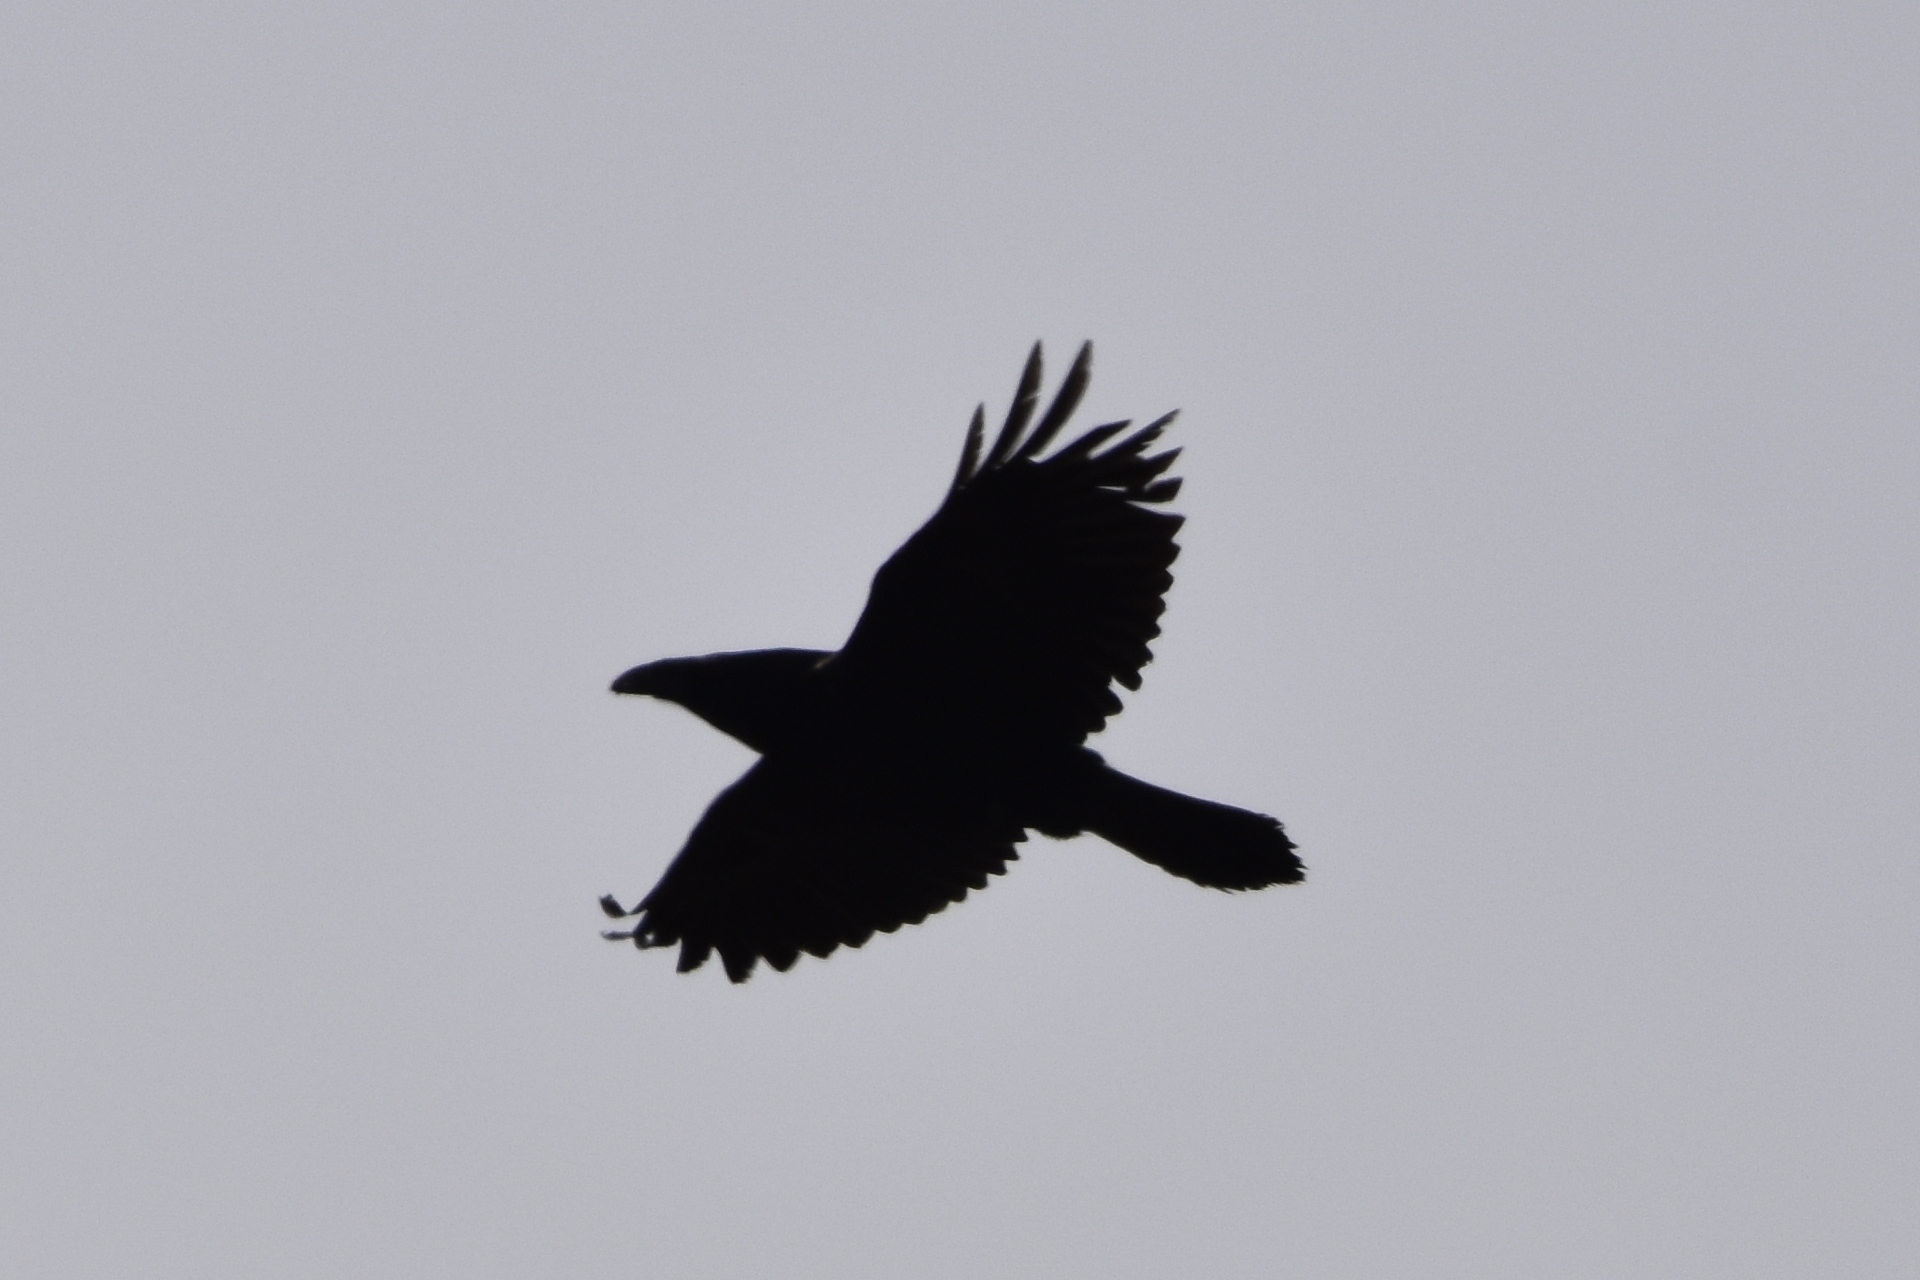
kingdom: Animalia
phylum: Chordata
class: Aves
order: Passeriformes
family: Corvidae
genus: Corvus
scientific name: Corvus corax
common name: Common raven
